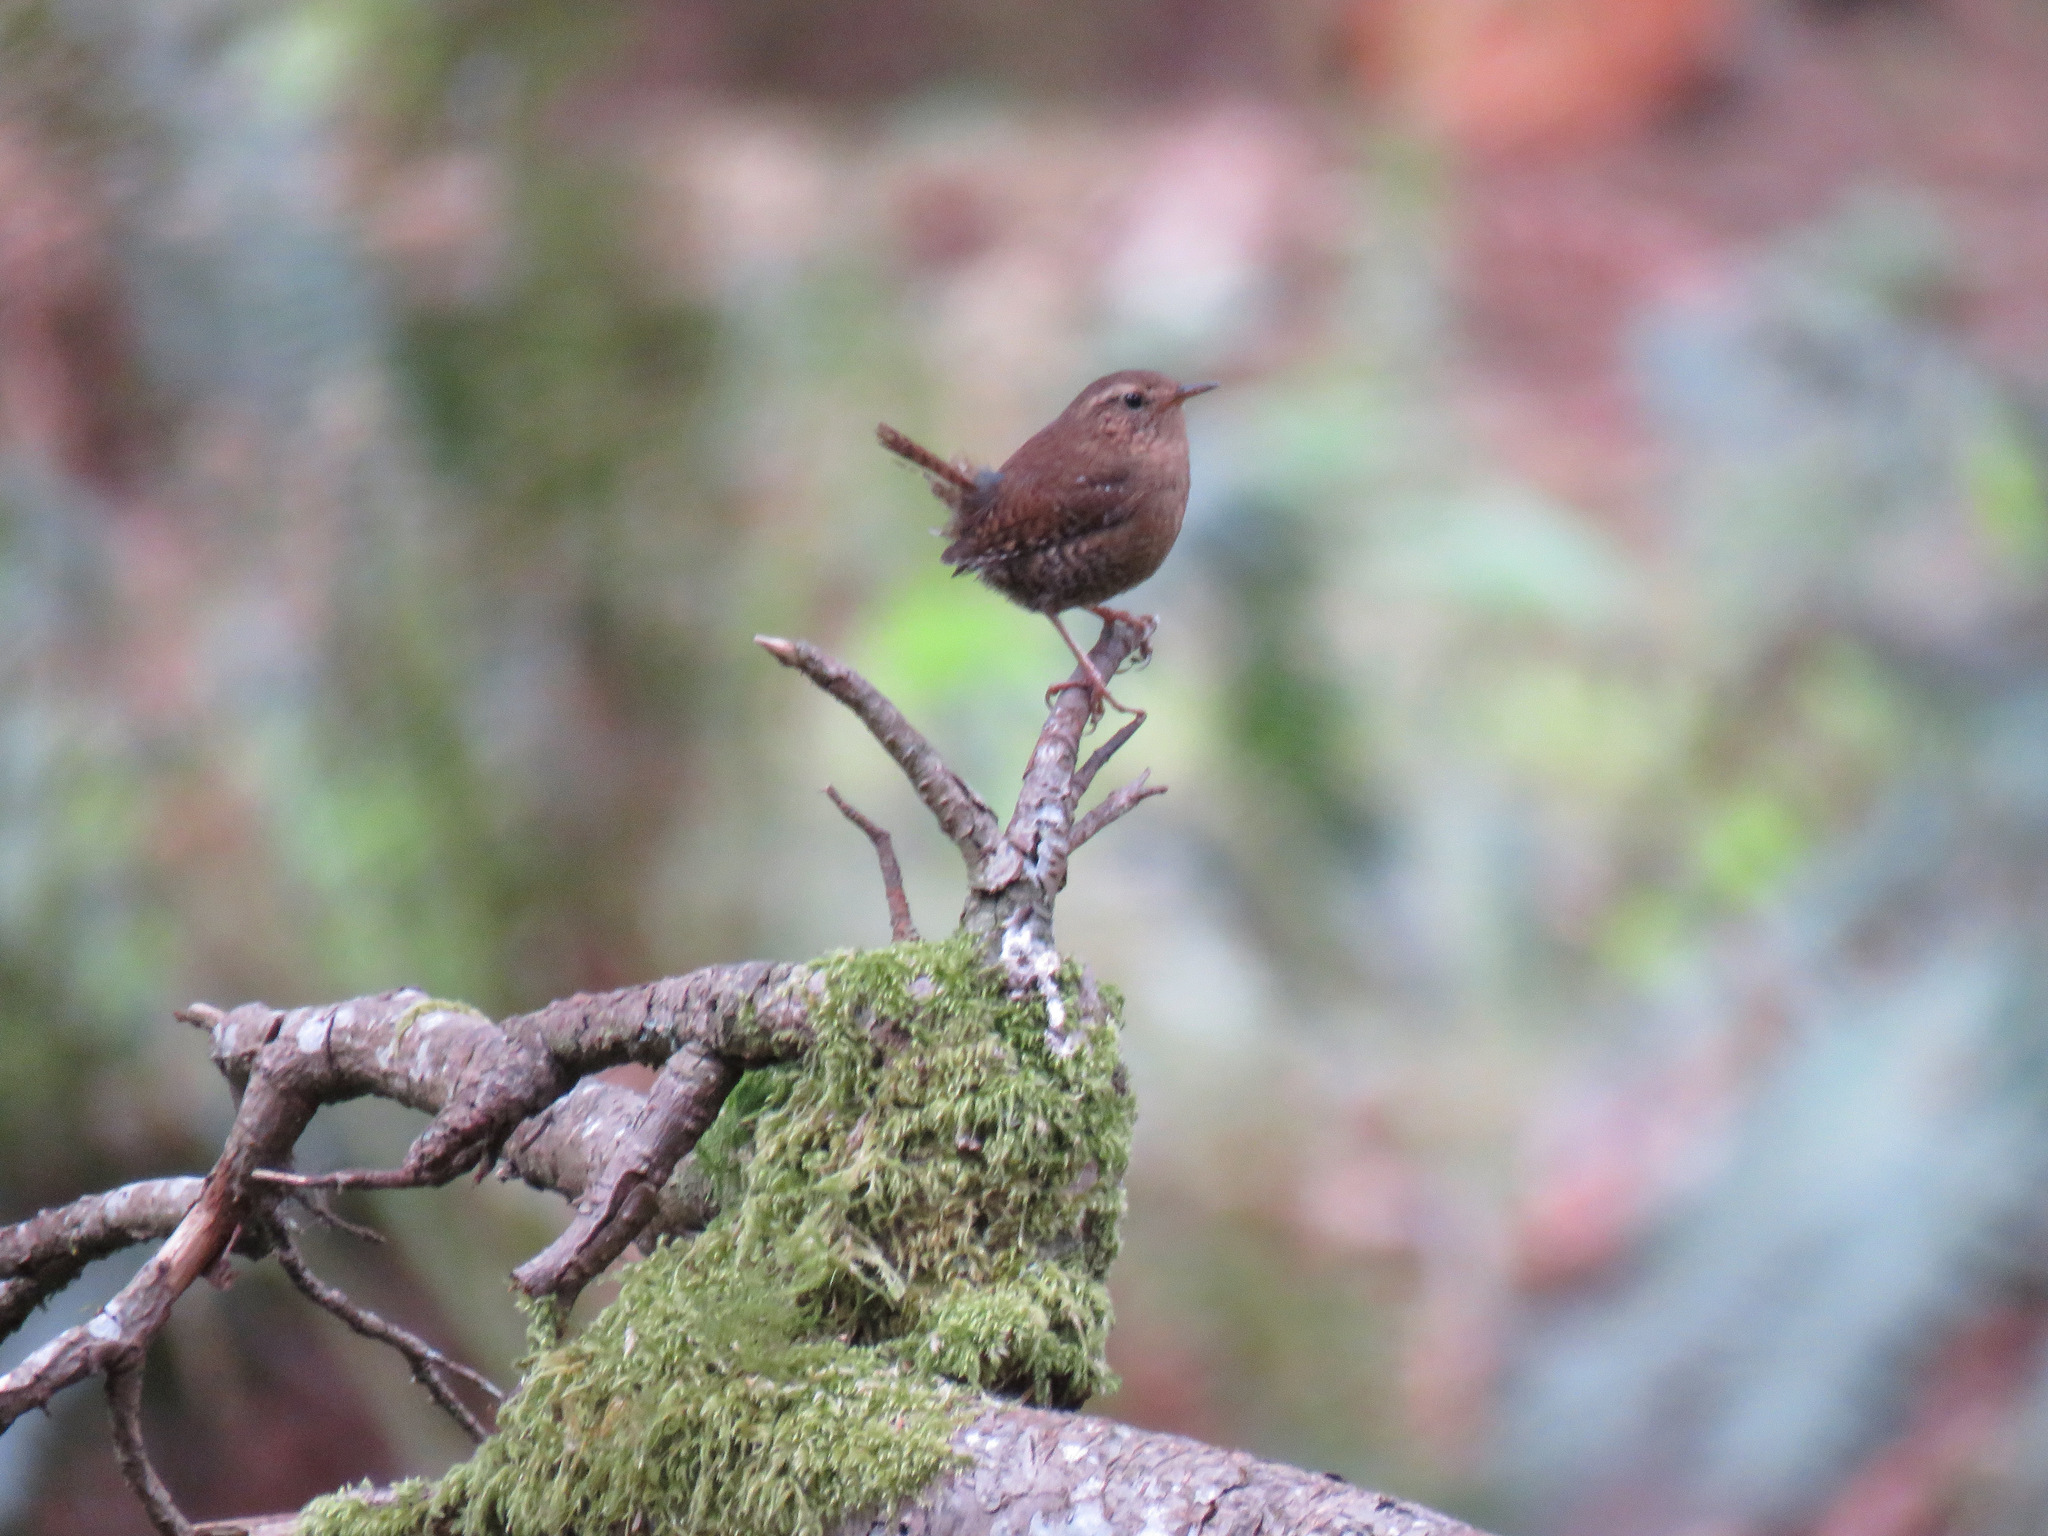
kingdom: Animalia
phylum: Chordata
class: Aves
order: Passeriformes
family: Troglodytidae
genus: Troglodytes
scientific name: Troglodytes pacificus
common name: Pacific wren
